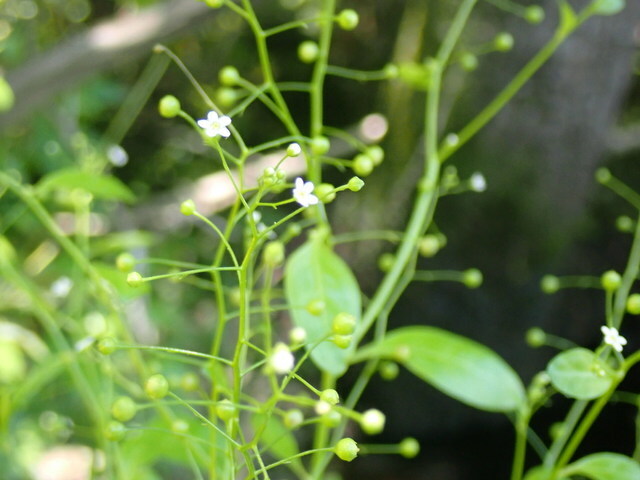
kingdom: Plantae
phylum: Tracheophyta
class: Magnoliopsida
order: Ericales
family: Primulaceae
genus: Samolus
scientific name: Samolus parviflorus
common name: False water pimpernel
